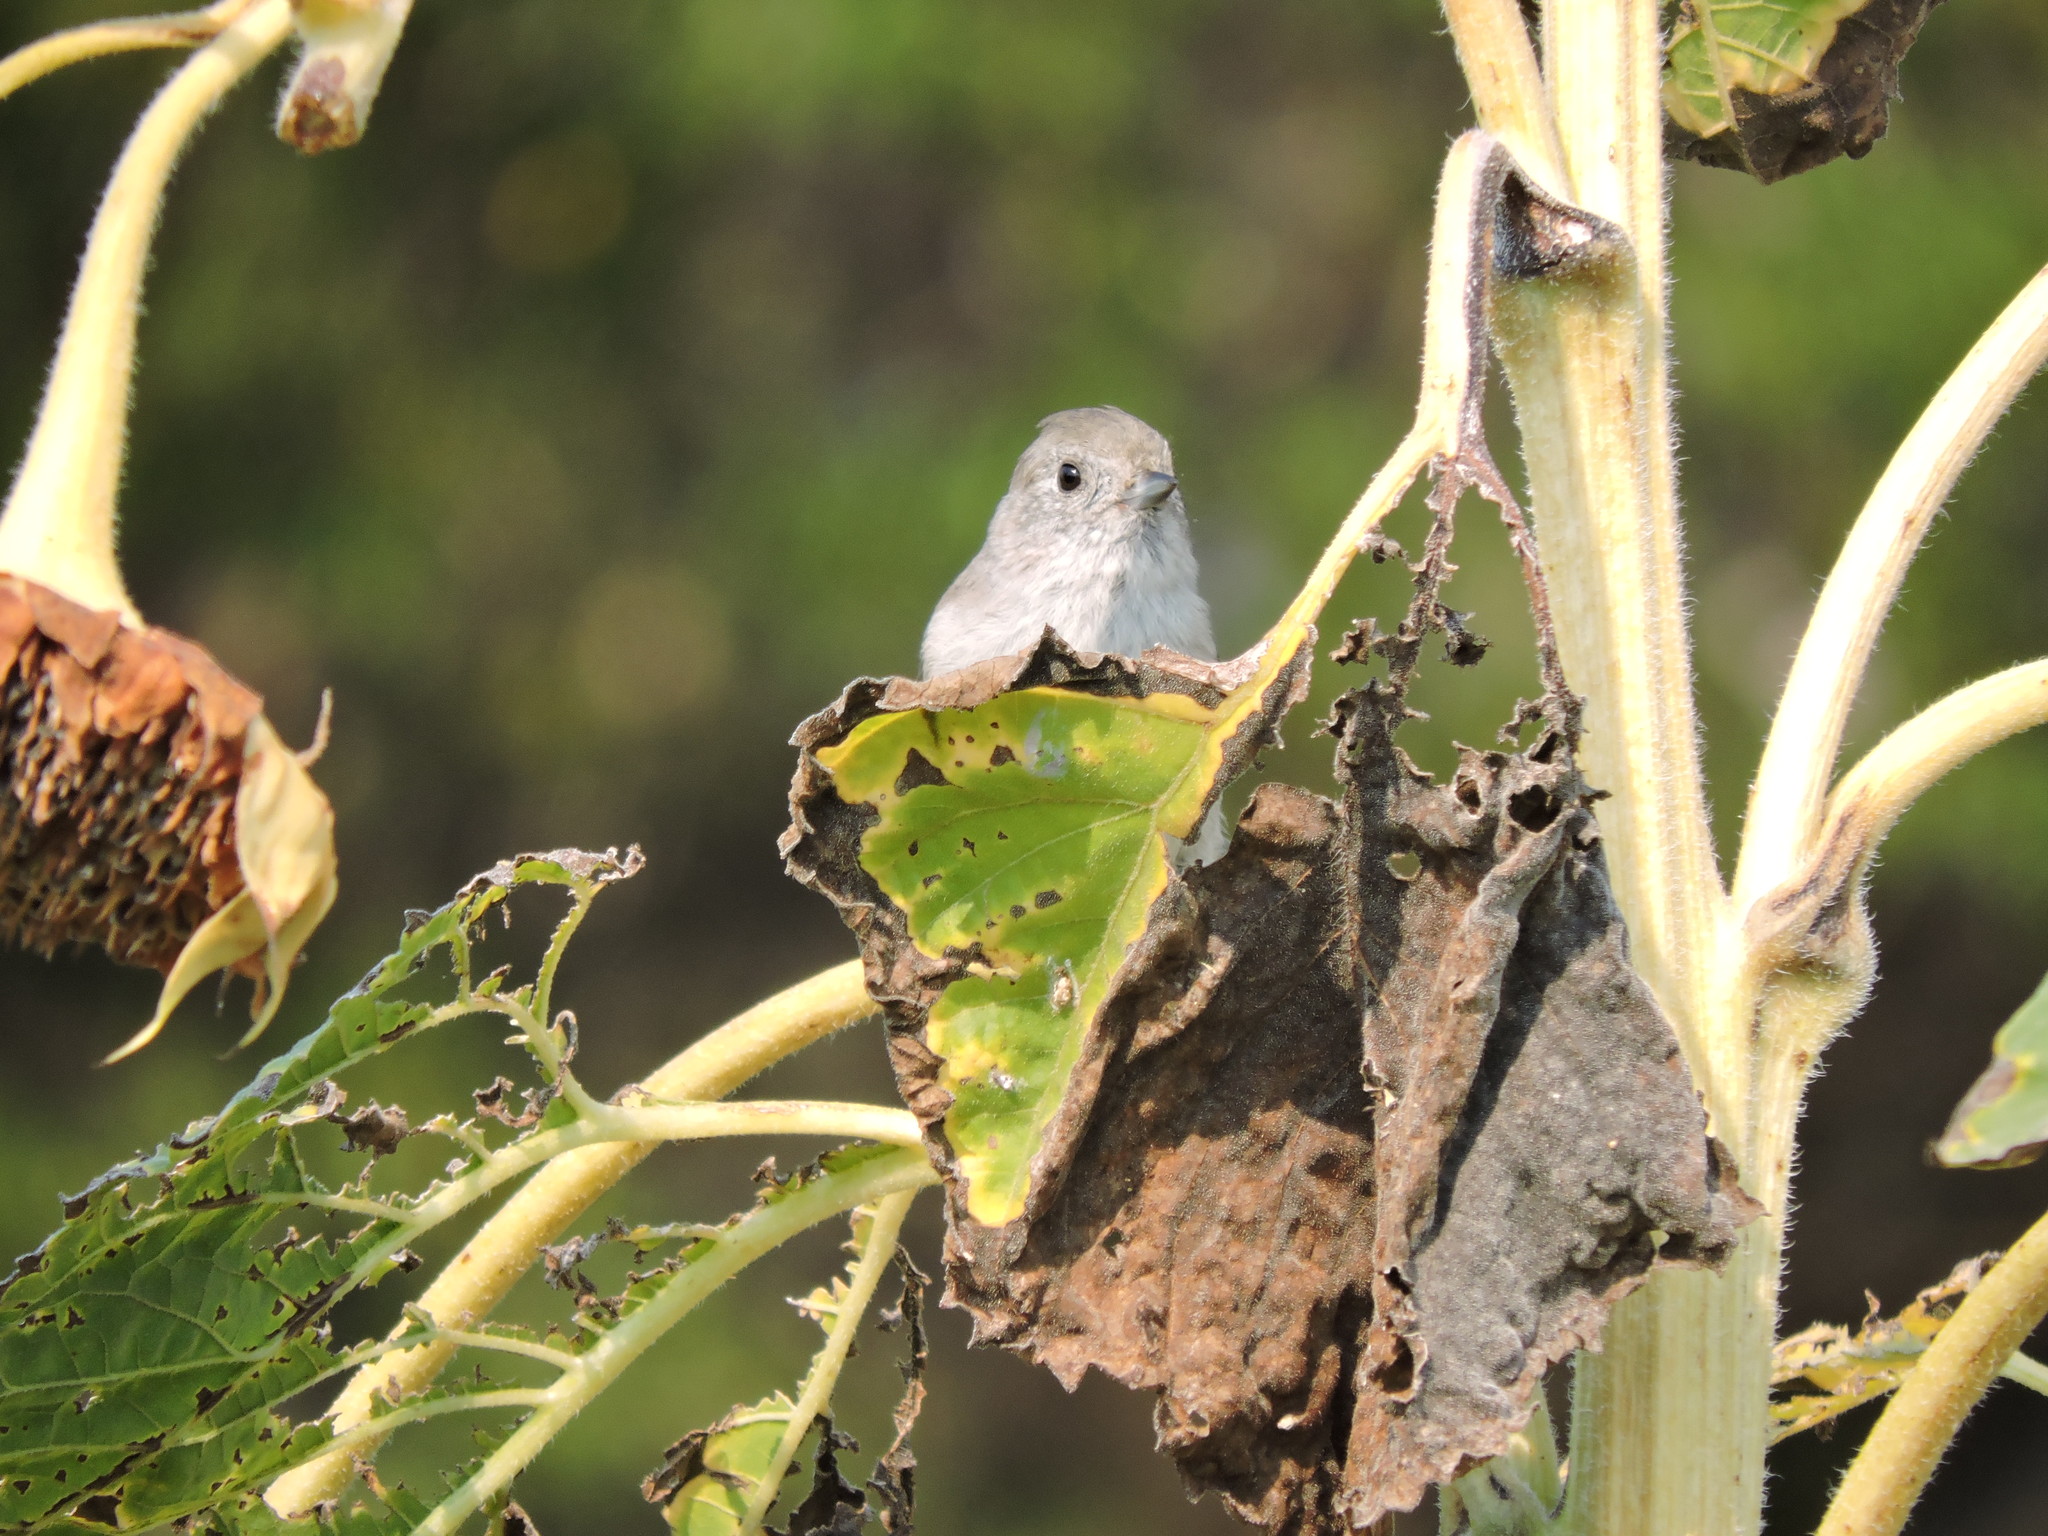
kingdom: Animalia
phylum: Chordata
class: Aves
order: Passeriformes
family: Paridae
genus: Baeolophus
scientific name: Baeolophus inornatus
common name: Oak titmouse
